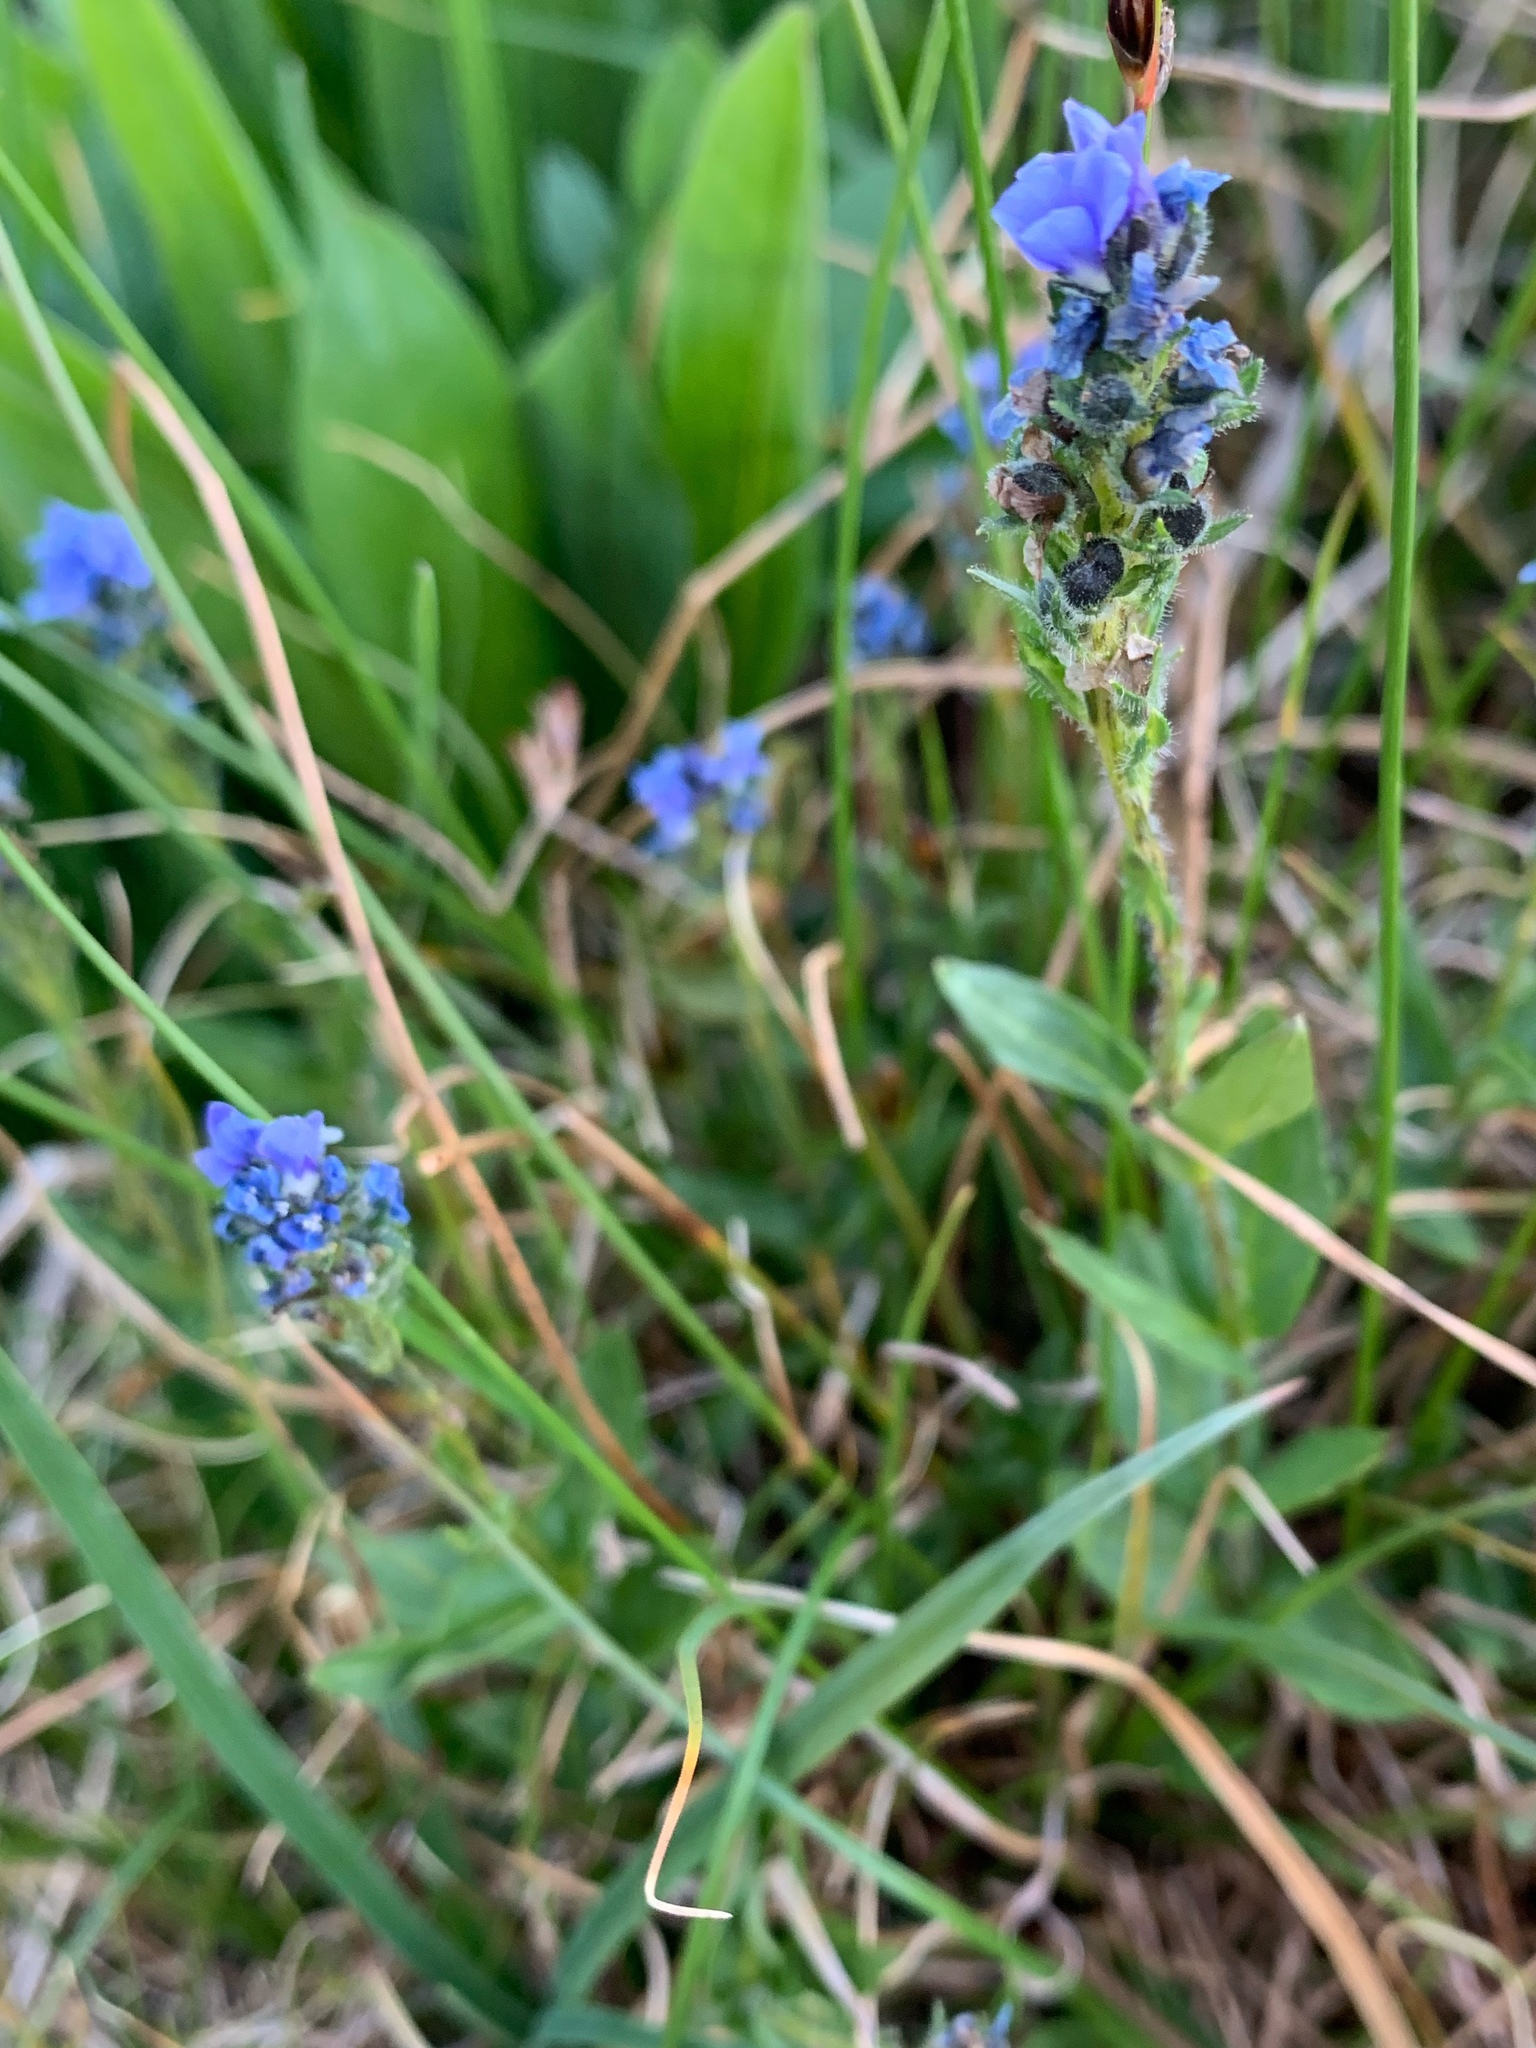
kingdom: Plantae
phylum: Tracheophyta
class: Magnoliopsida
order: Lamiales
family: Plantaginaceae
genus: Veronica
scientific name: Veronica wormskjoldii
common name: American alpine speedwell
